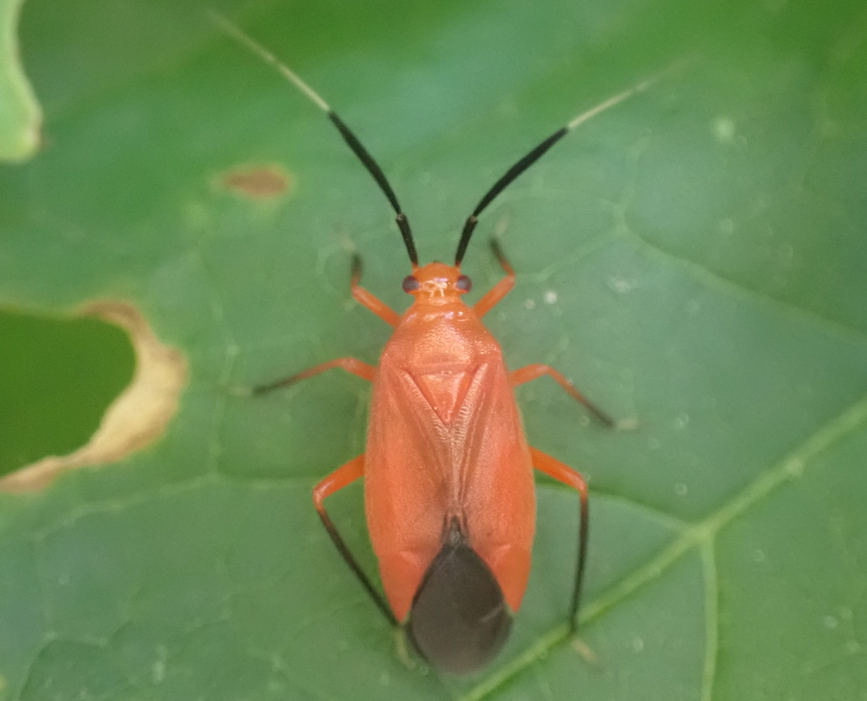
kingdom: Animalia
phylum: Arthropoda
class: Insecta
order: Hemiptera
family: Miridae
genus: Coccobaphes
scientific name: Coccobaphes frontifer
